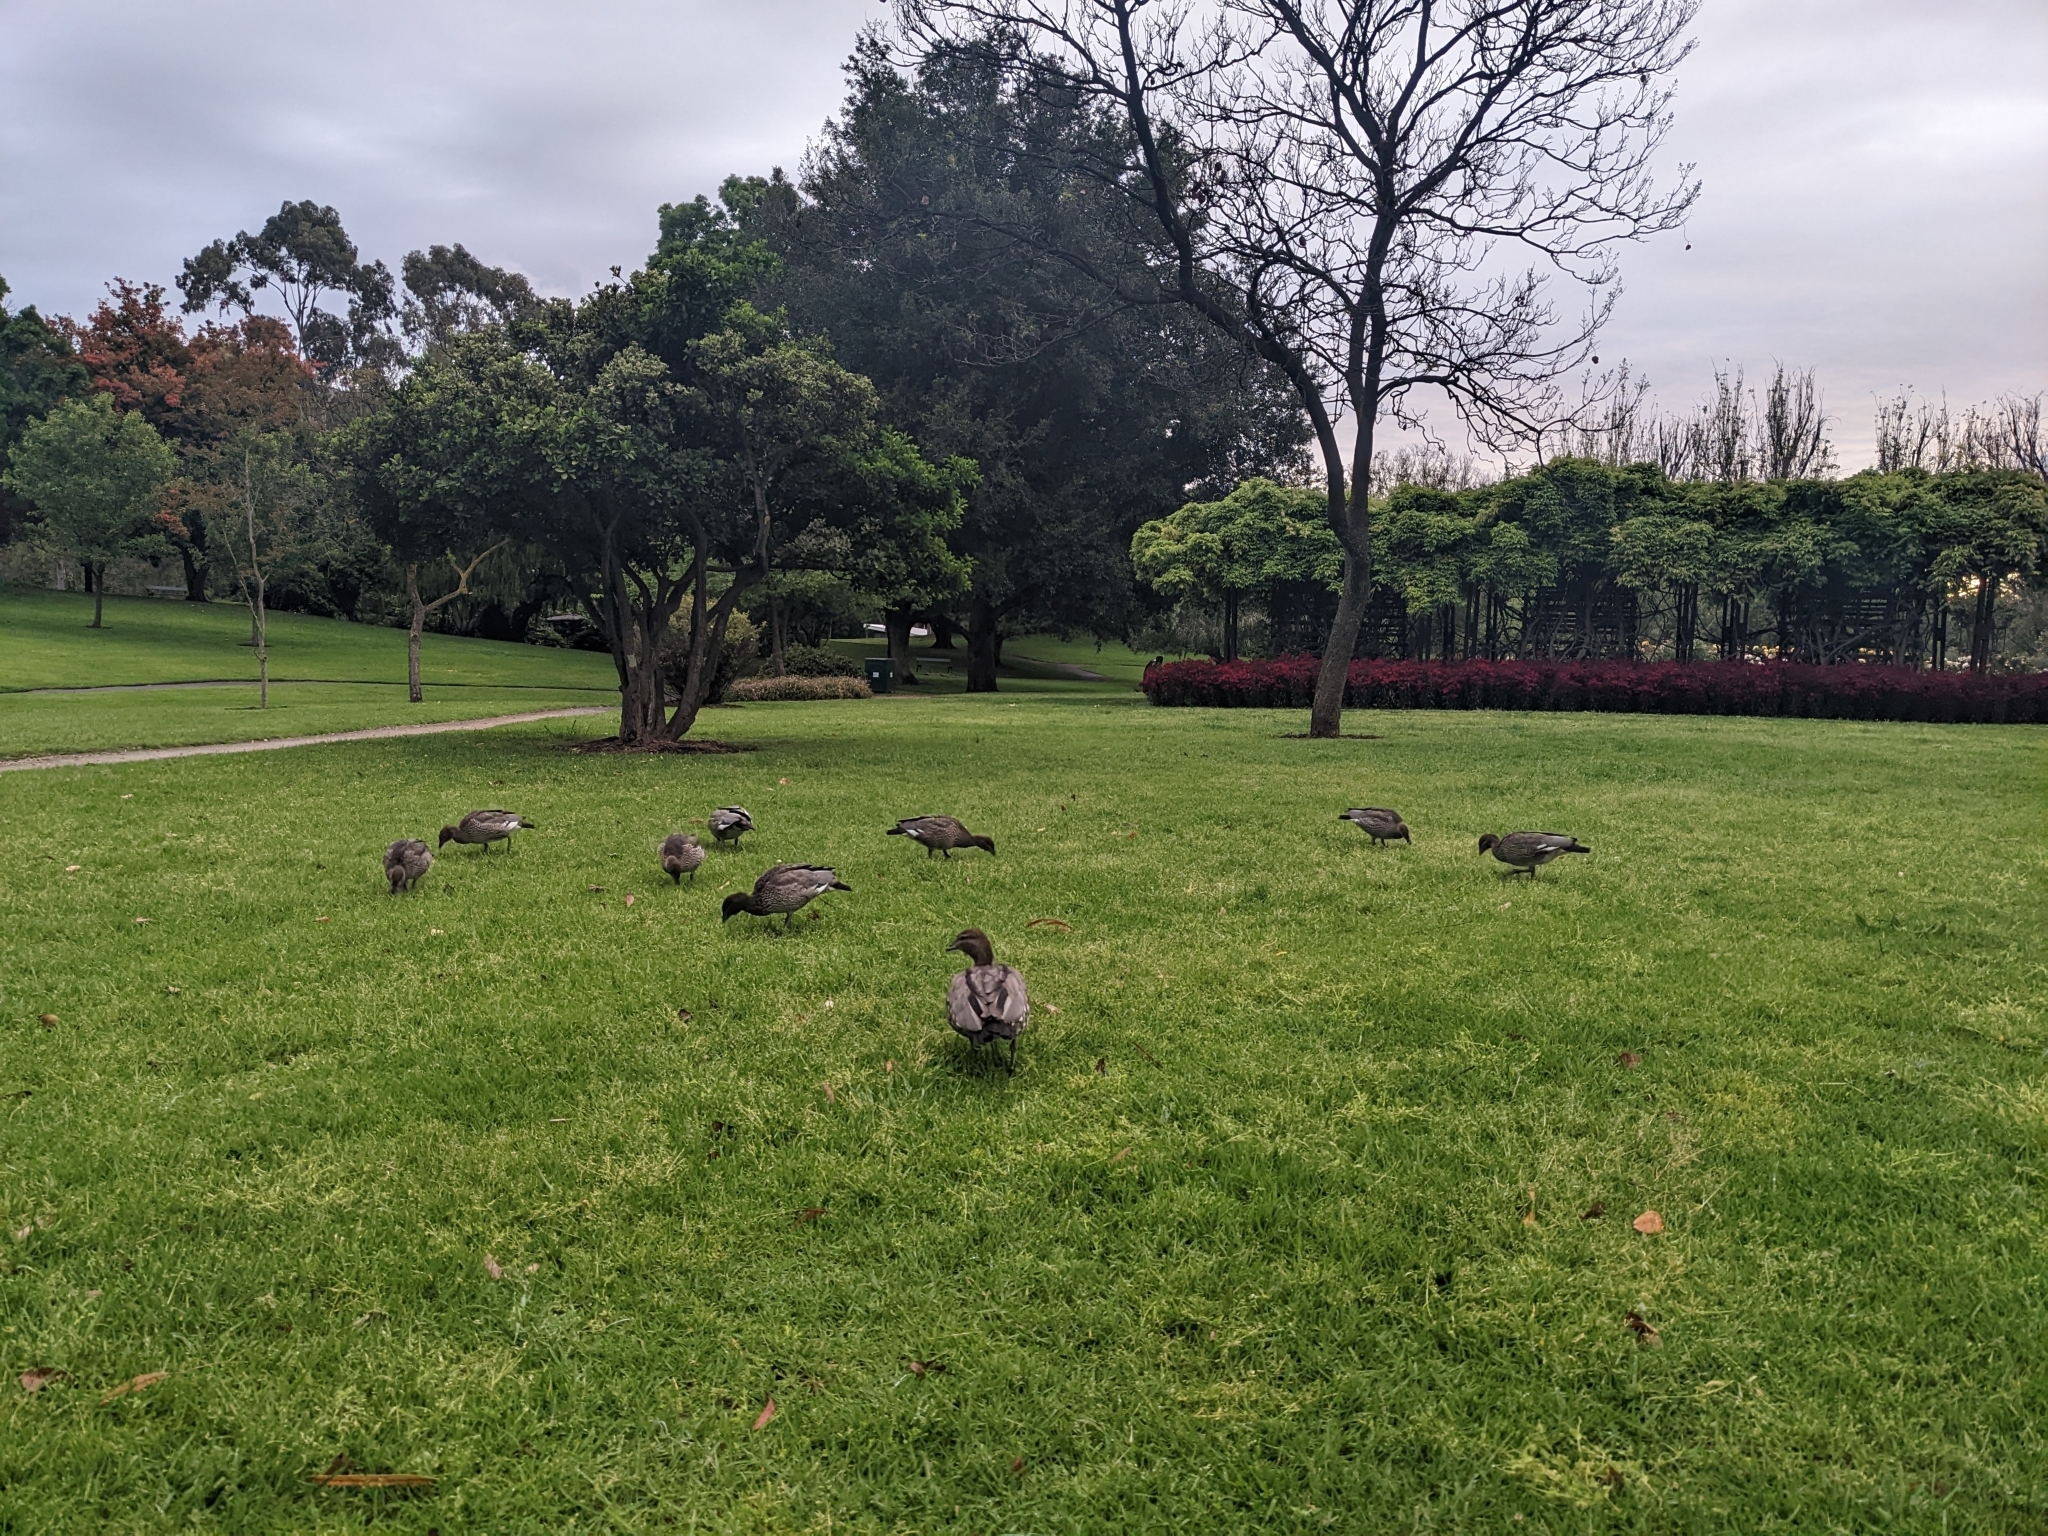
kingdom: Animalia
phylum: Chordata
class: Aves
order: Anseriformes
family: Anatidae
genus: Chenonetta
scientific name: Chenonetta jubata
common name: Maned duck
